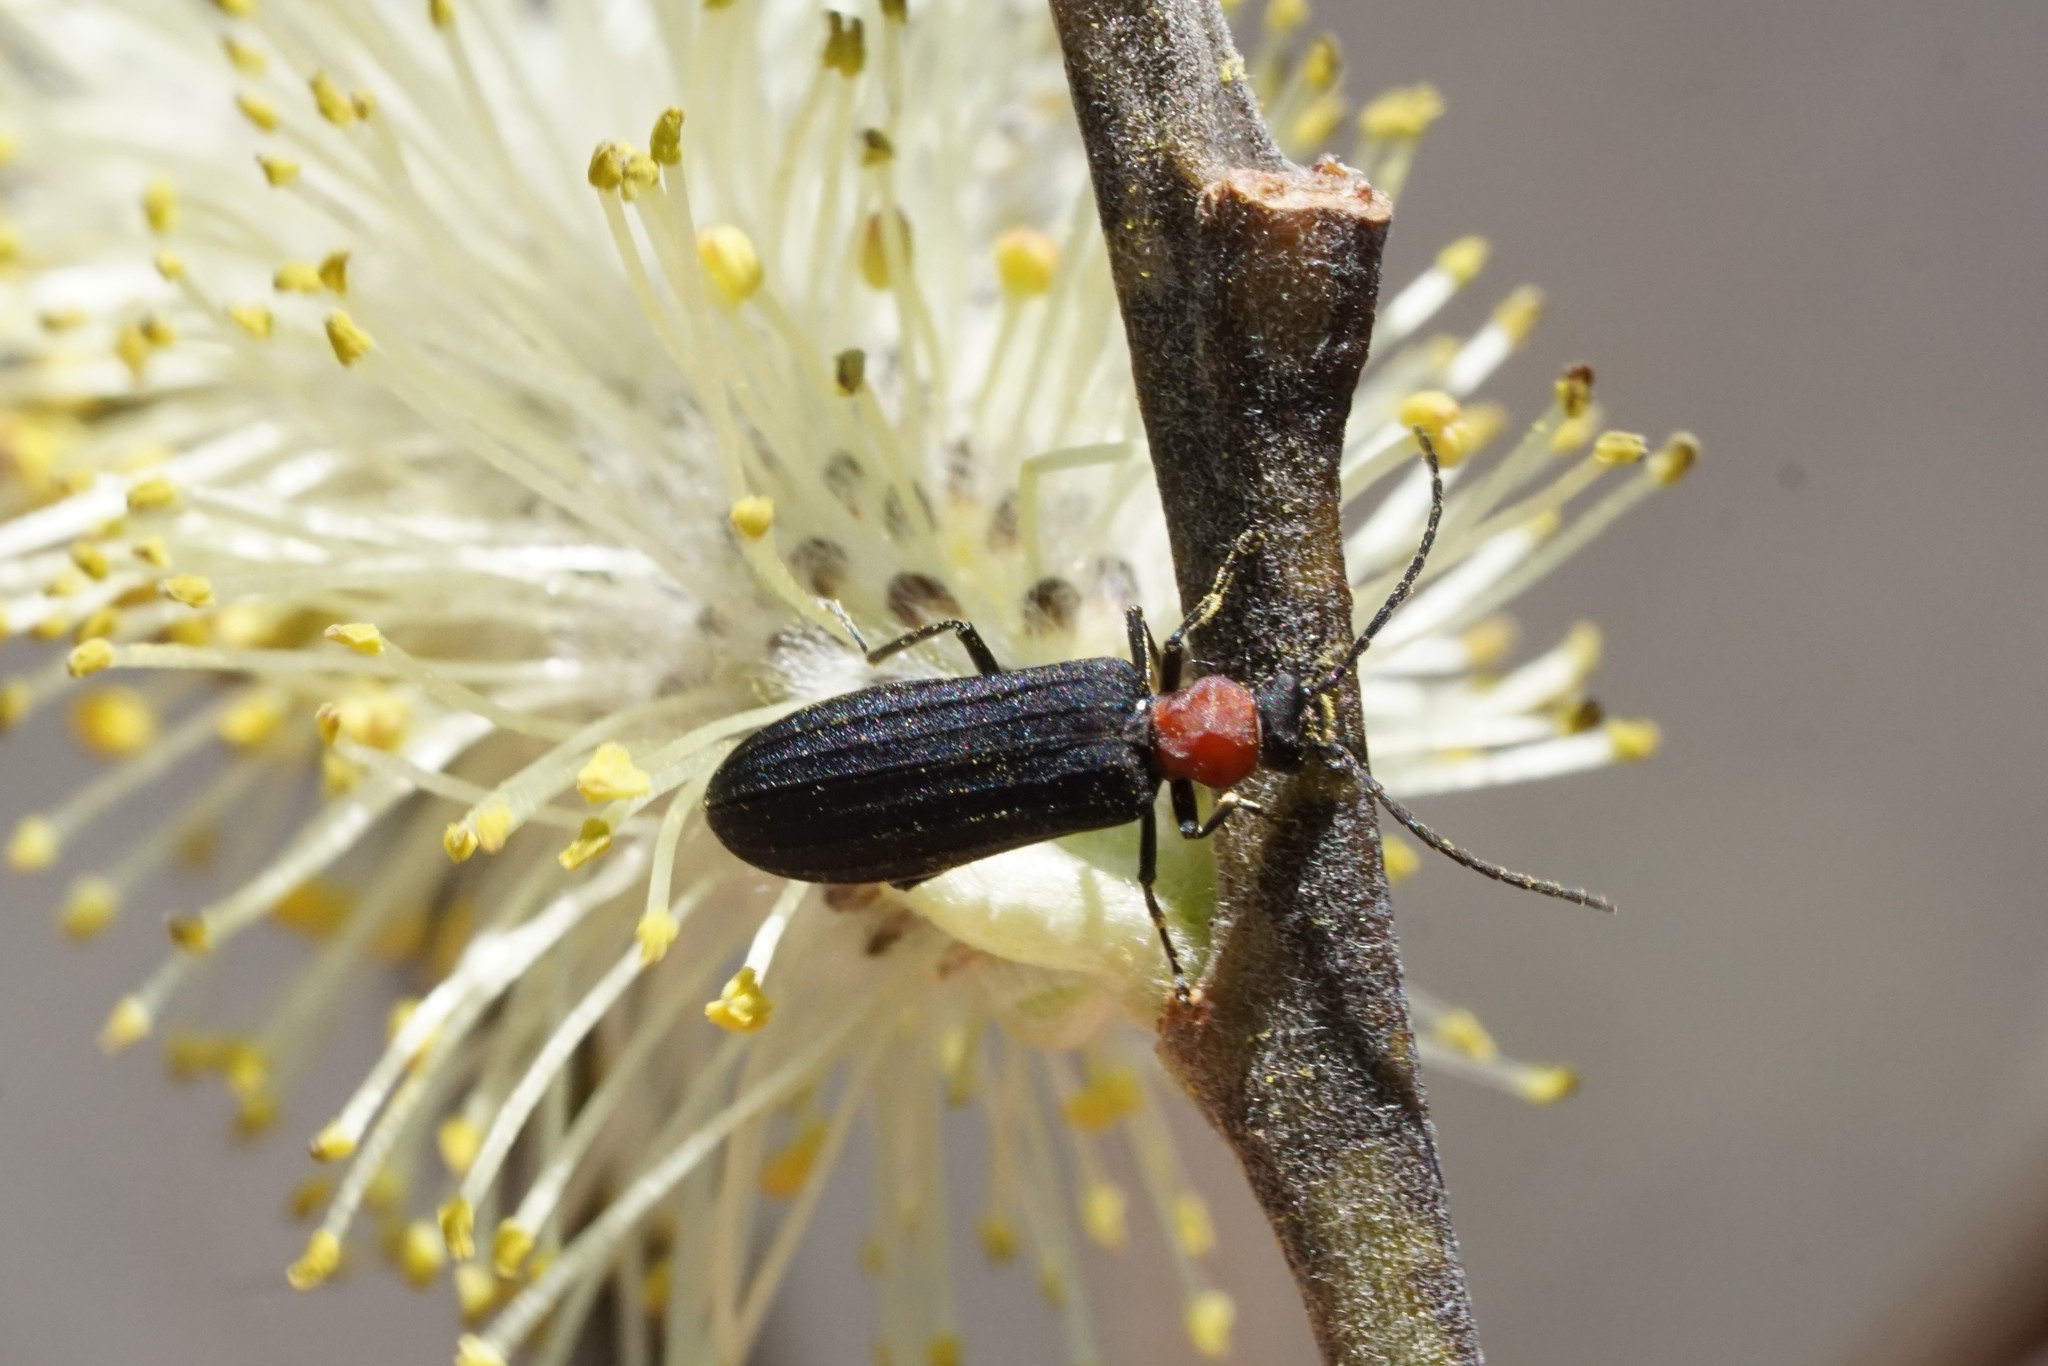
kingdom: Animalia
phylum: Arthropoda
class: Insecta
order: Coleoptera
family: Oedemeridae
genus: Ischnomera
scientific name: Ischnomera
